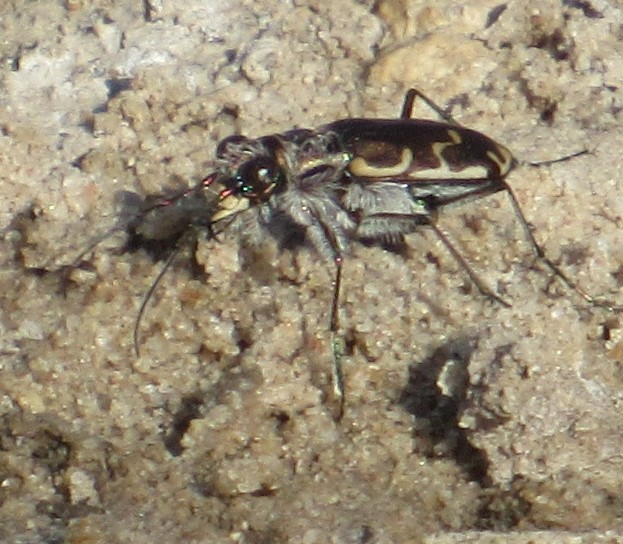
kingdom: Animalia
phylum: Arthropoda
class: Insecta
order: Coleoptera
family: Carabidae
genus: Cicindela
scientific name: Cicindela repanda
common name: Bronzed tiger beetle
